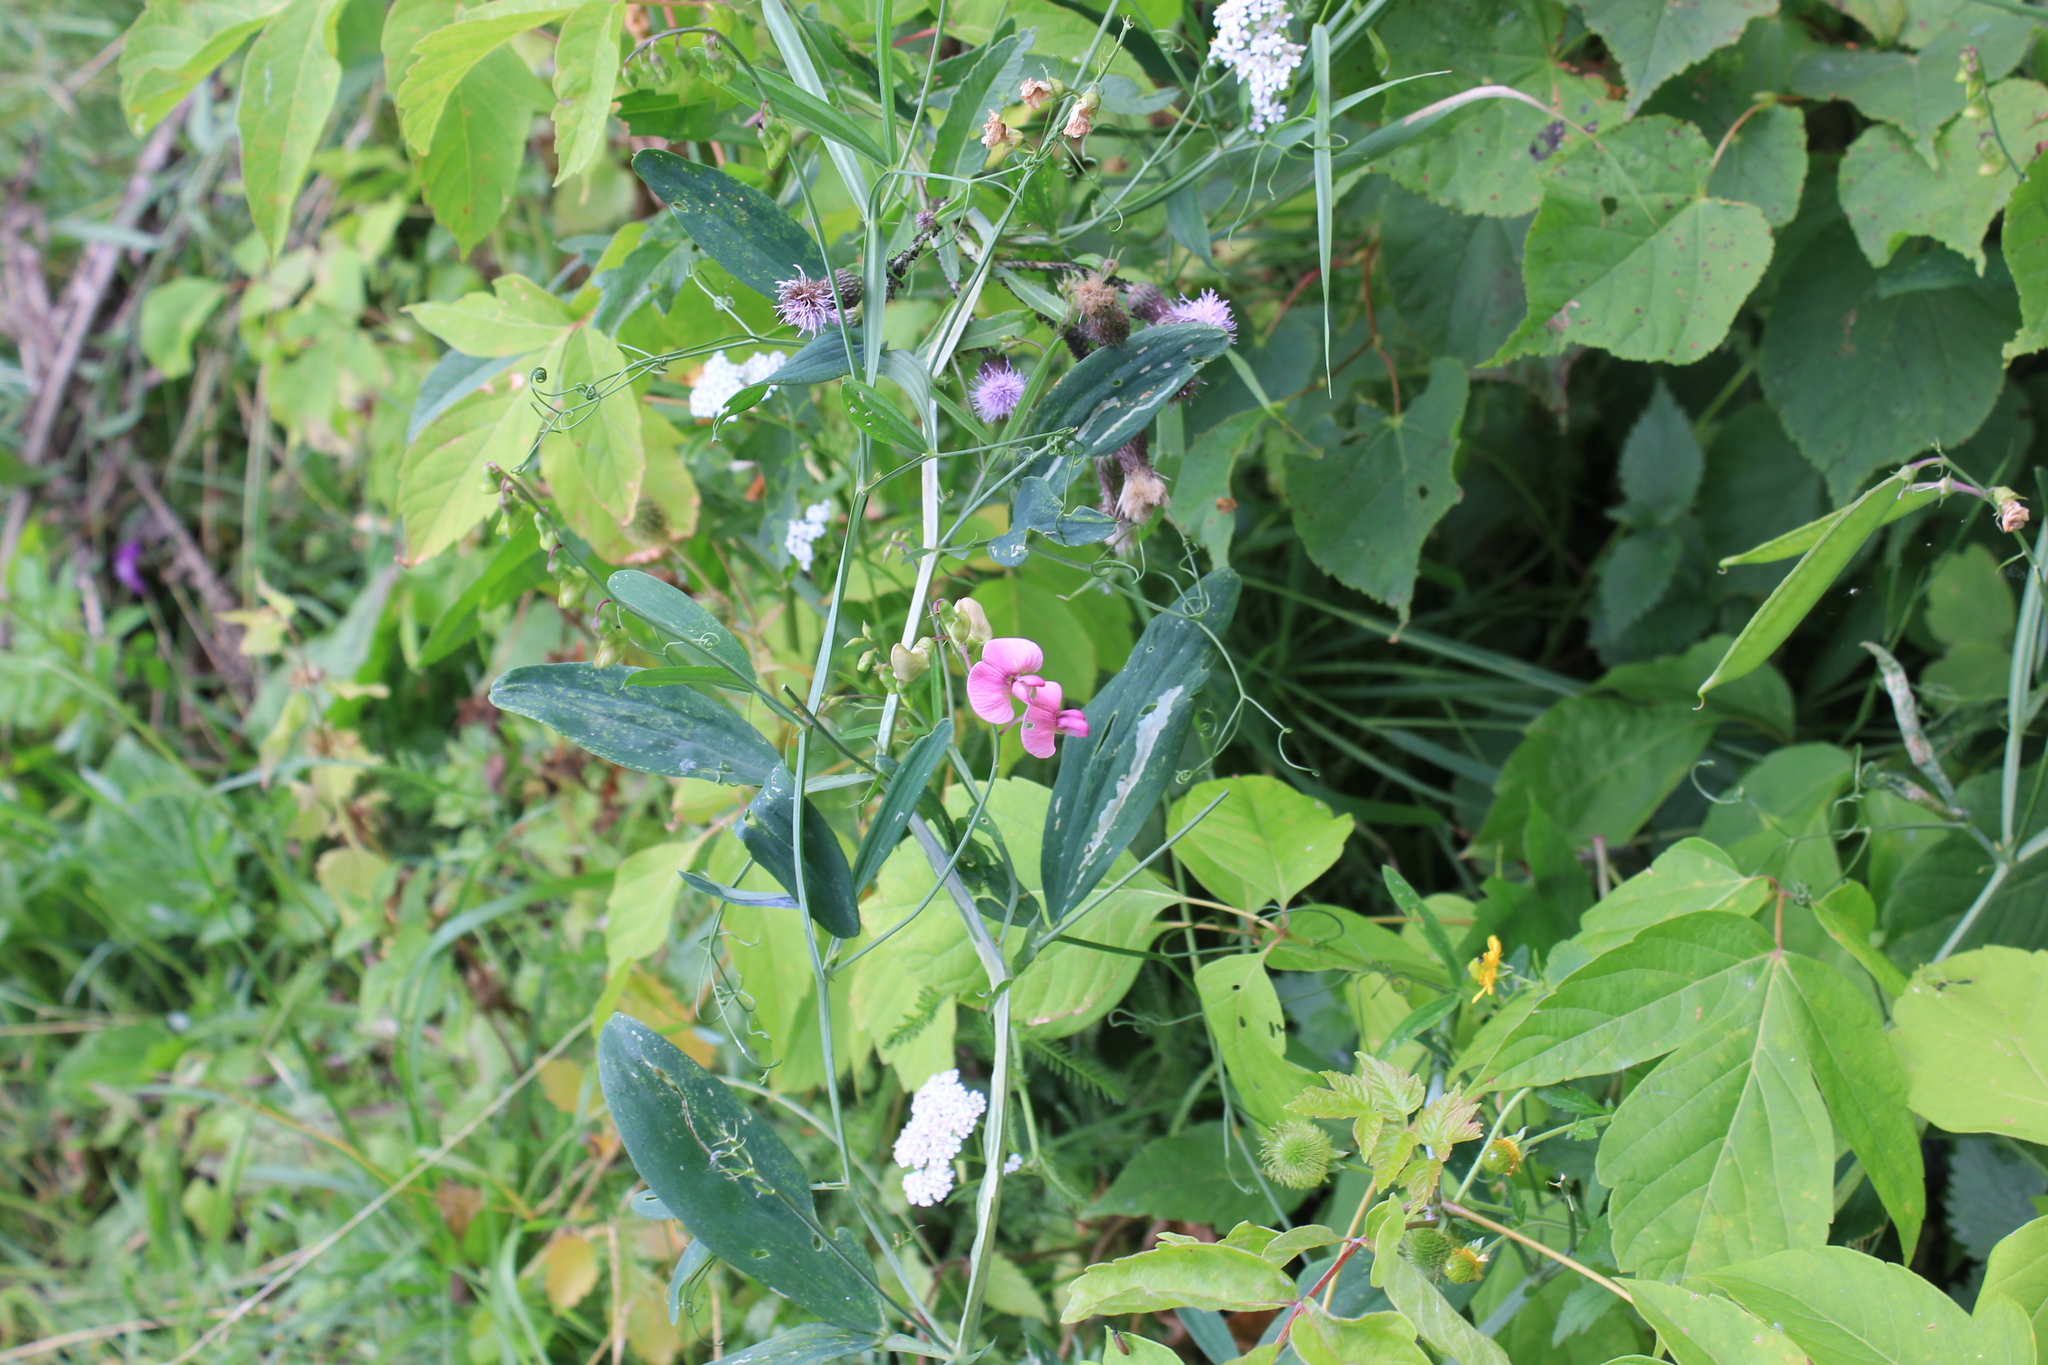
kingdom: Plantae
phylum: Tracheophyta
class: Magnoliopsida
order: Fabales
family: Fabaceae
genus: Lathyrus
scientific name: Lathyrus sylvestris
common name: Flat pea
